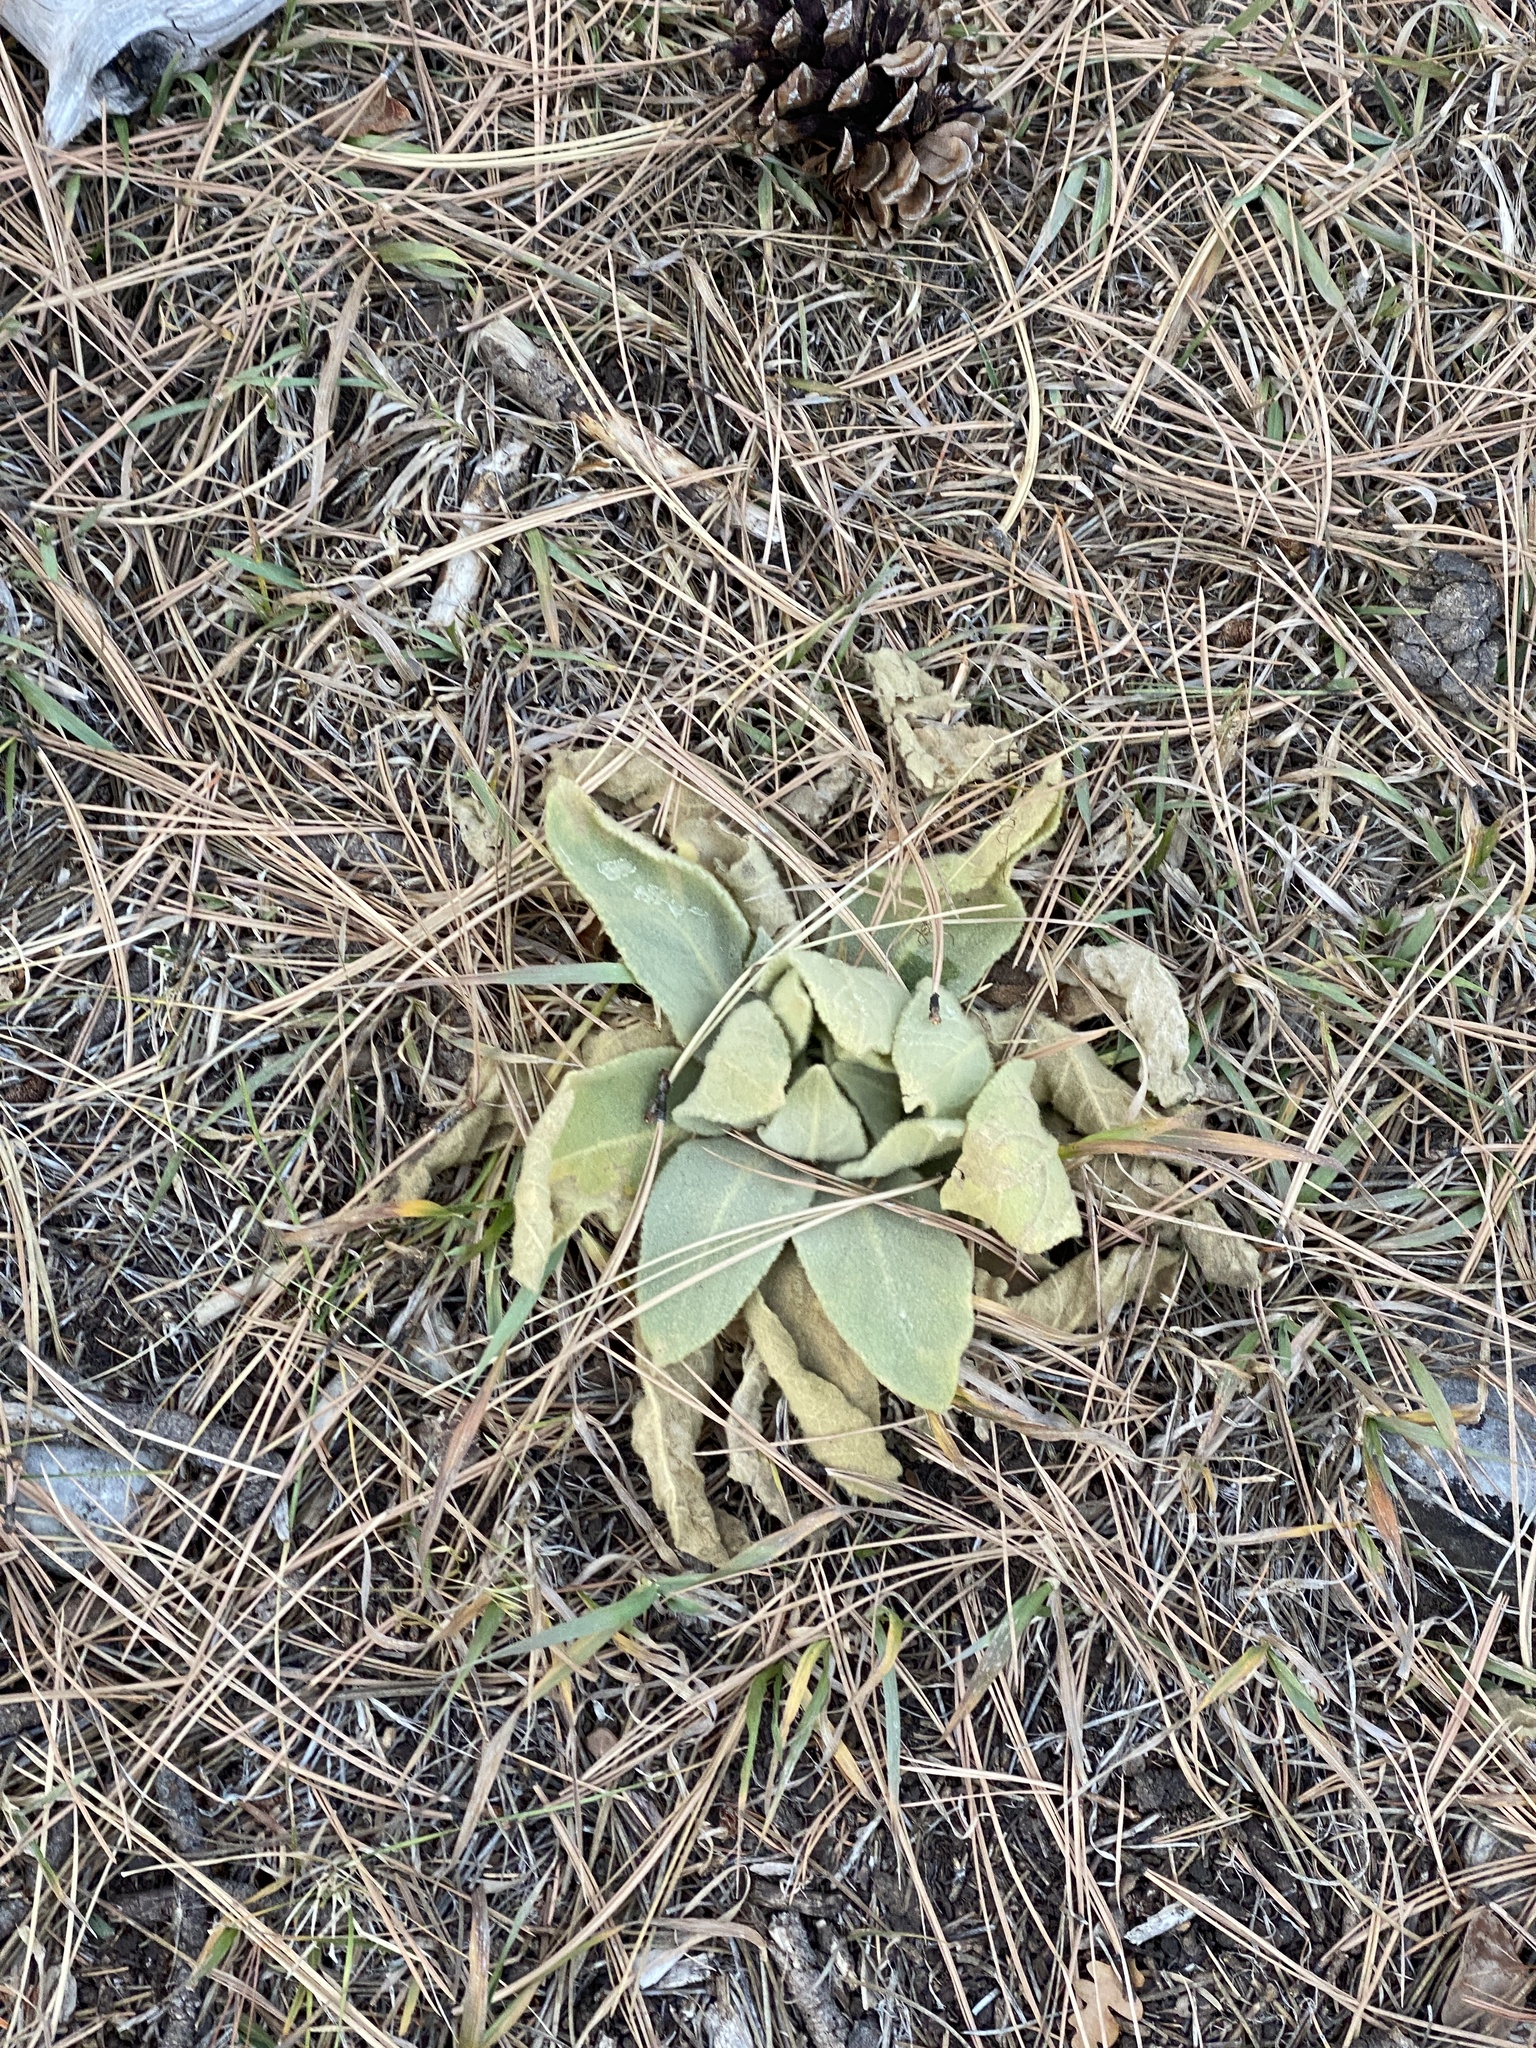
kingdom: Plantae
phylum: Tracheophyta
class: Magnoliopsida
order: Lamiales
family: Scrophulariaceae
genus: Verbascum
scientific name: Verbascum thapsus
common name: Common mullein
